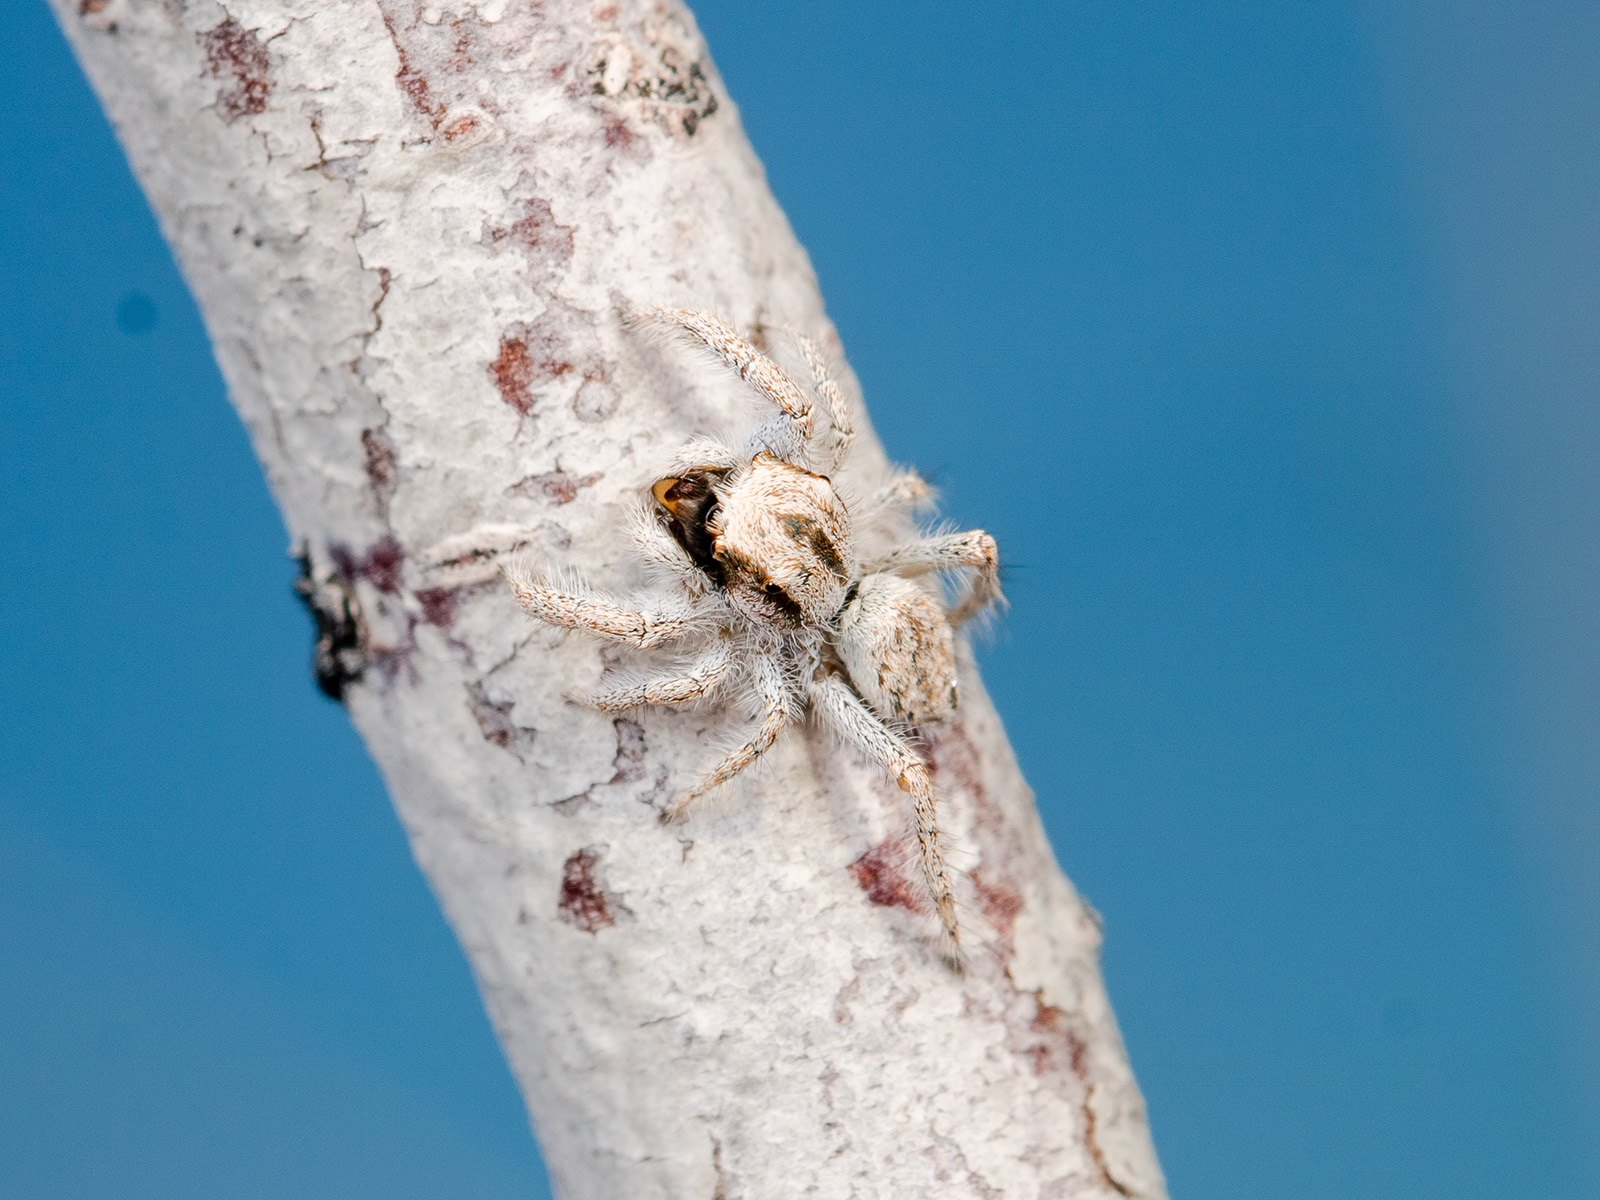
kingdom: Animalia
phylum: Arthropoda
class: Arachnida
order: Araneae
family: Salticidae
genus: Marusyllus
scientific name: Marusyllus aralicus
